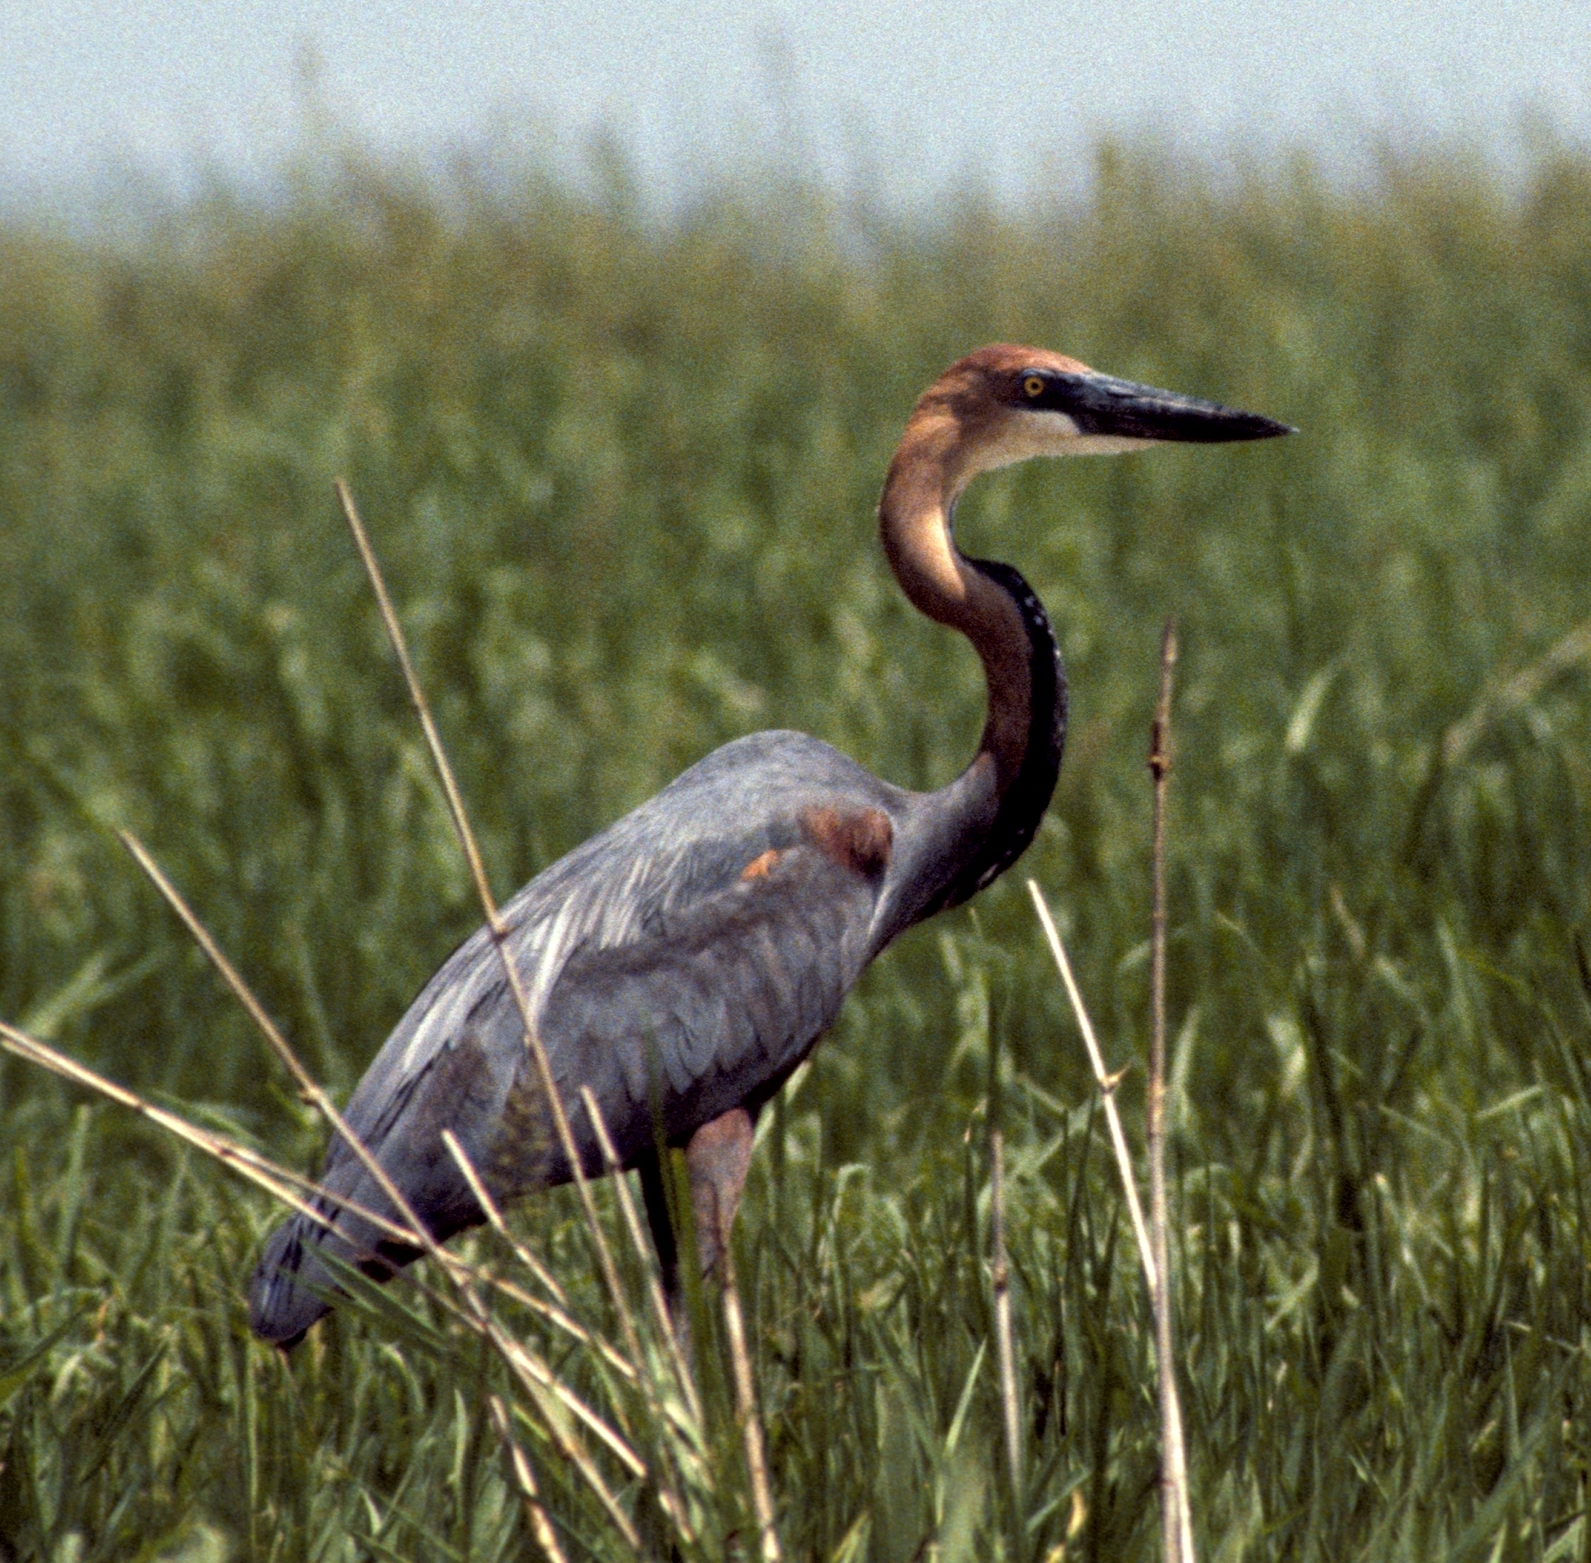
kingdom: Animalia
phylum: Chordata
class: Aves
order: Pelecaniformes
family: Ardeidae
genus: Ardea
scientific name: Ardea goliath
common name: Goliath heron
